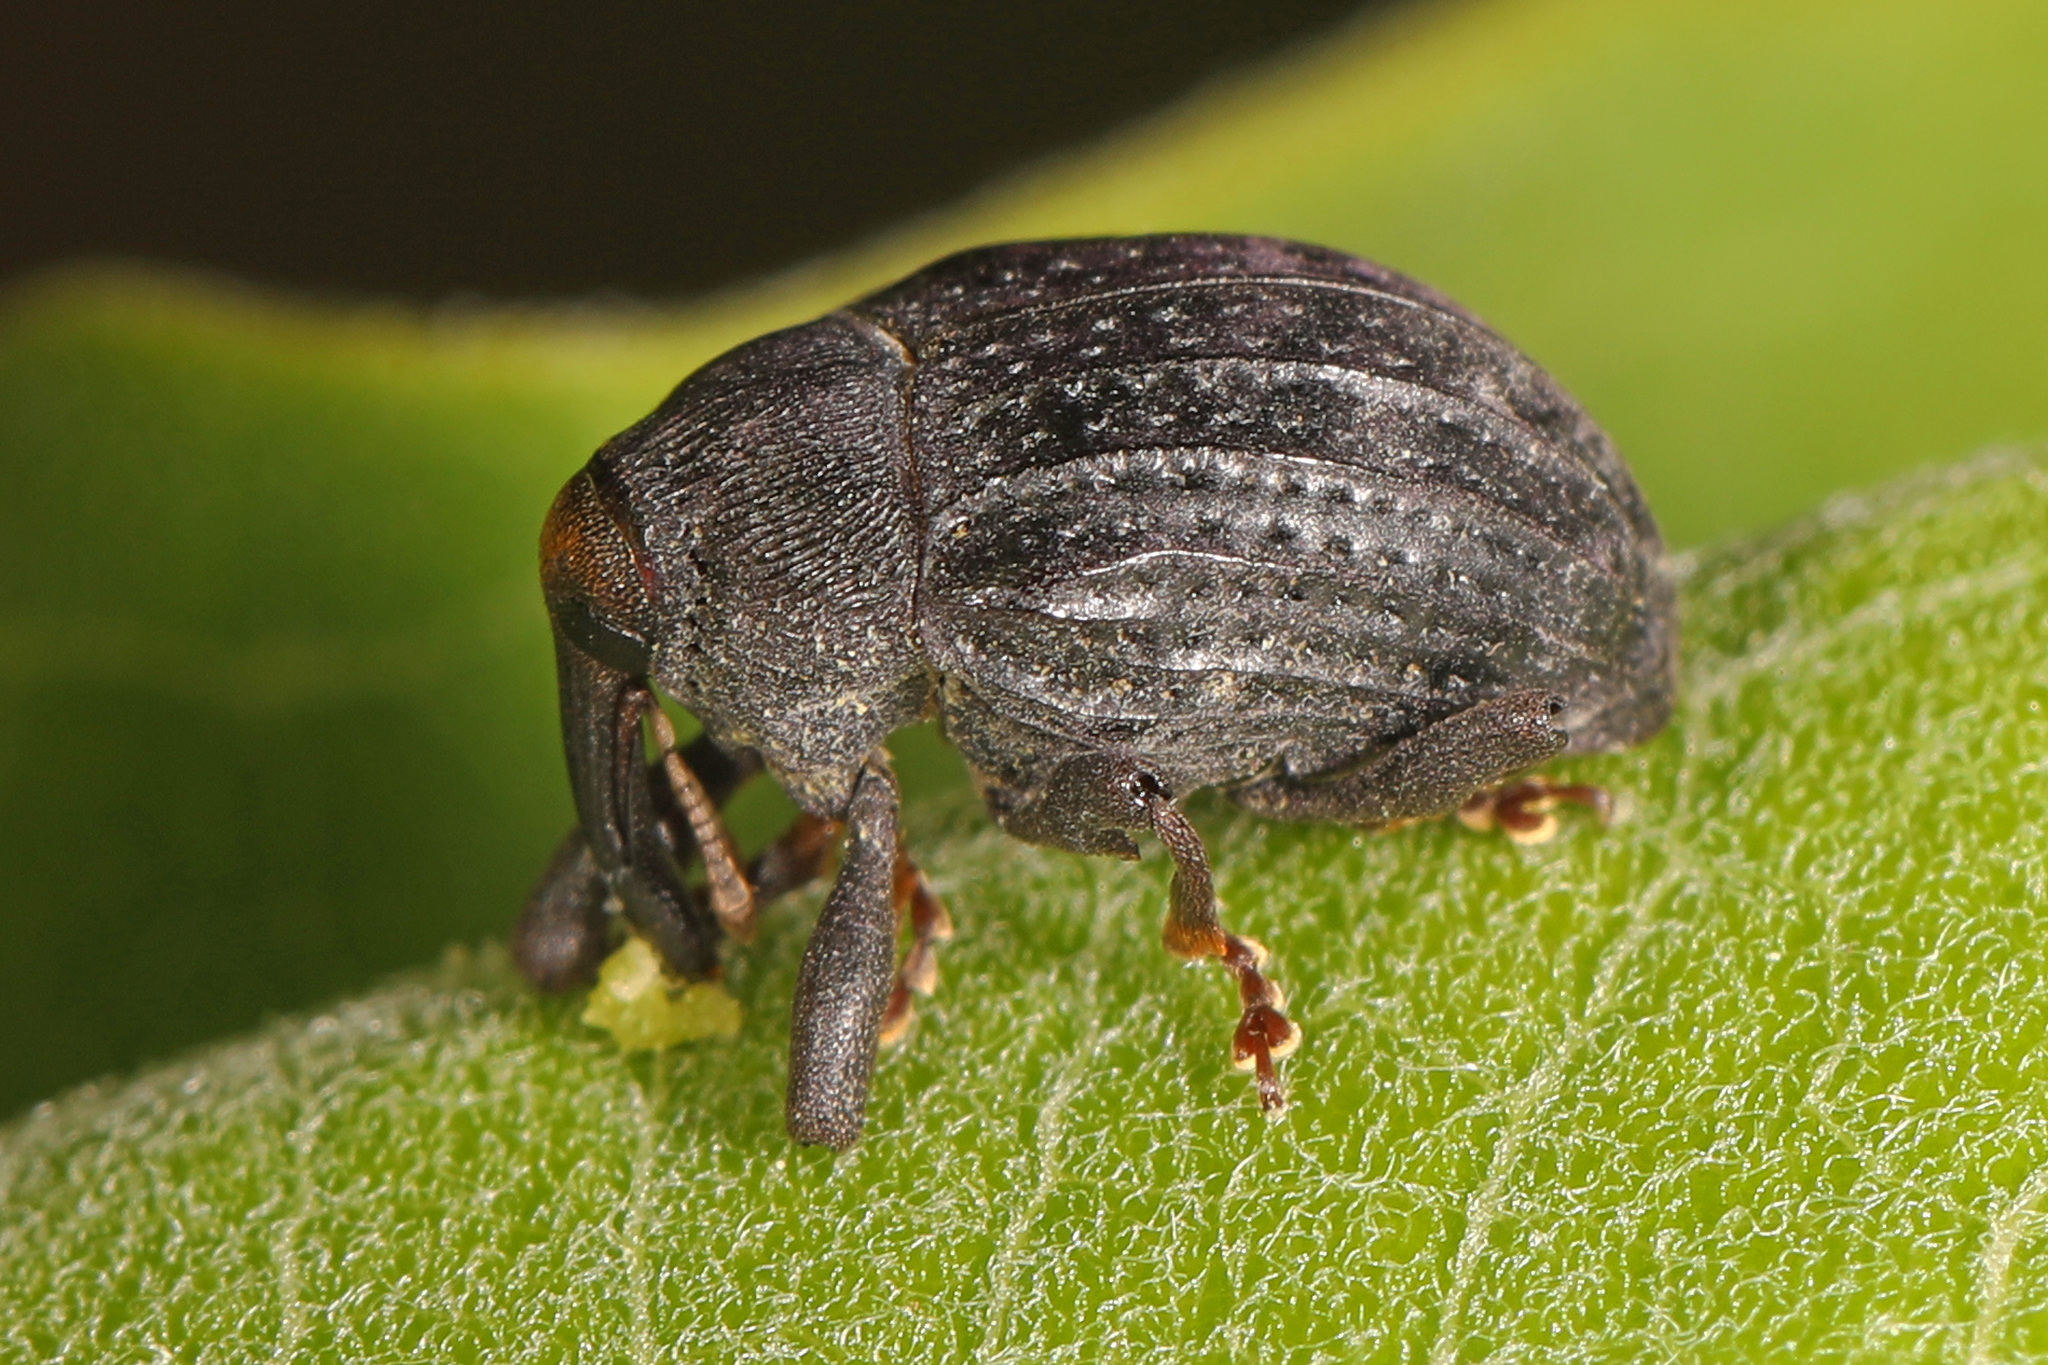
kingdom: Animalia
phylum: Arthropoda
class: Insecta
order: Coleoptera
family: Curculionidae
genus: Rhyssomatus
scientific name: Rhyssomatus lineaticollis
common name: Milkweed stem weevil
